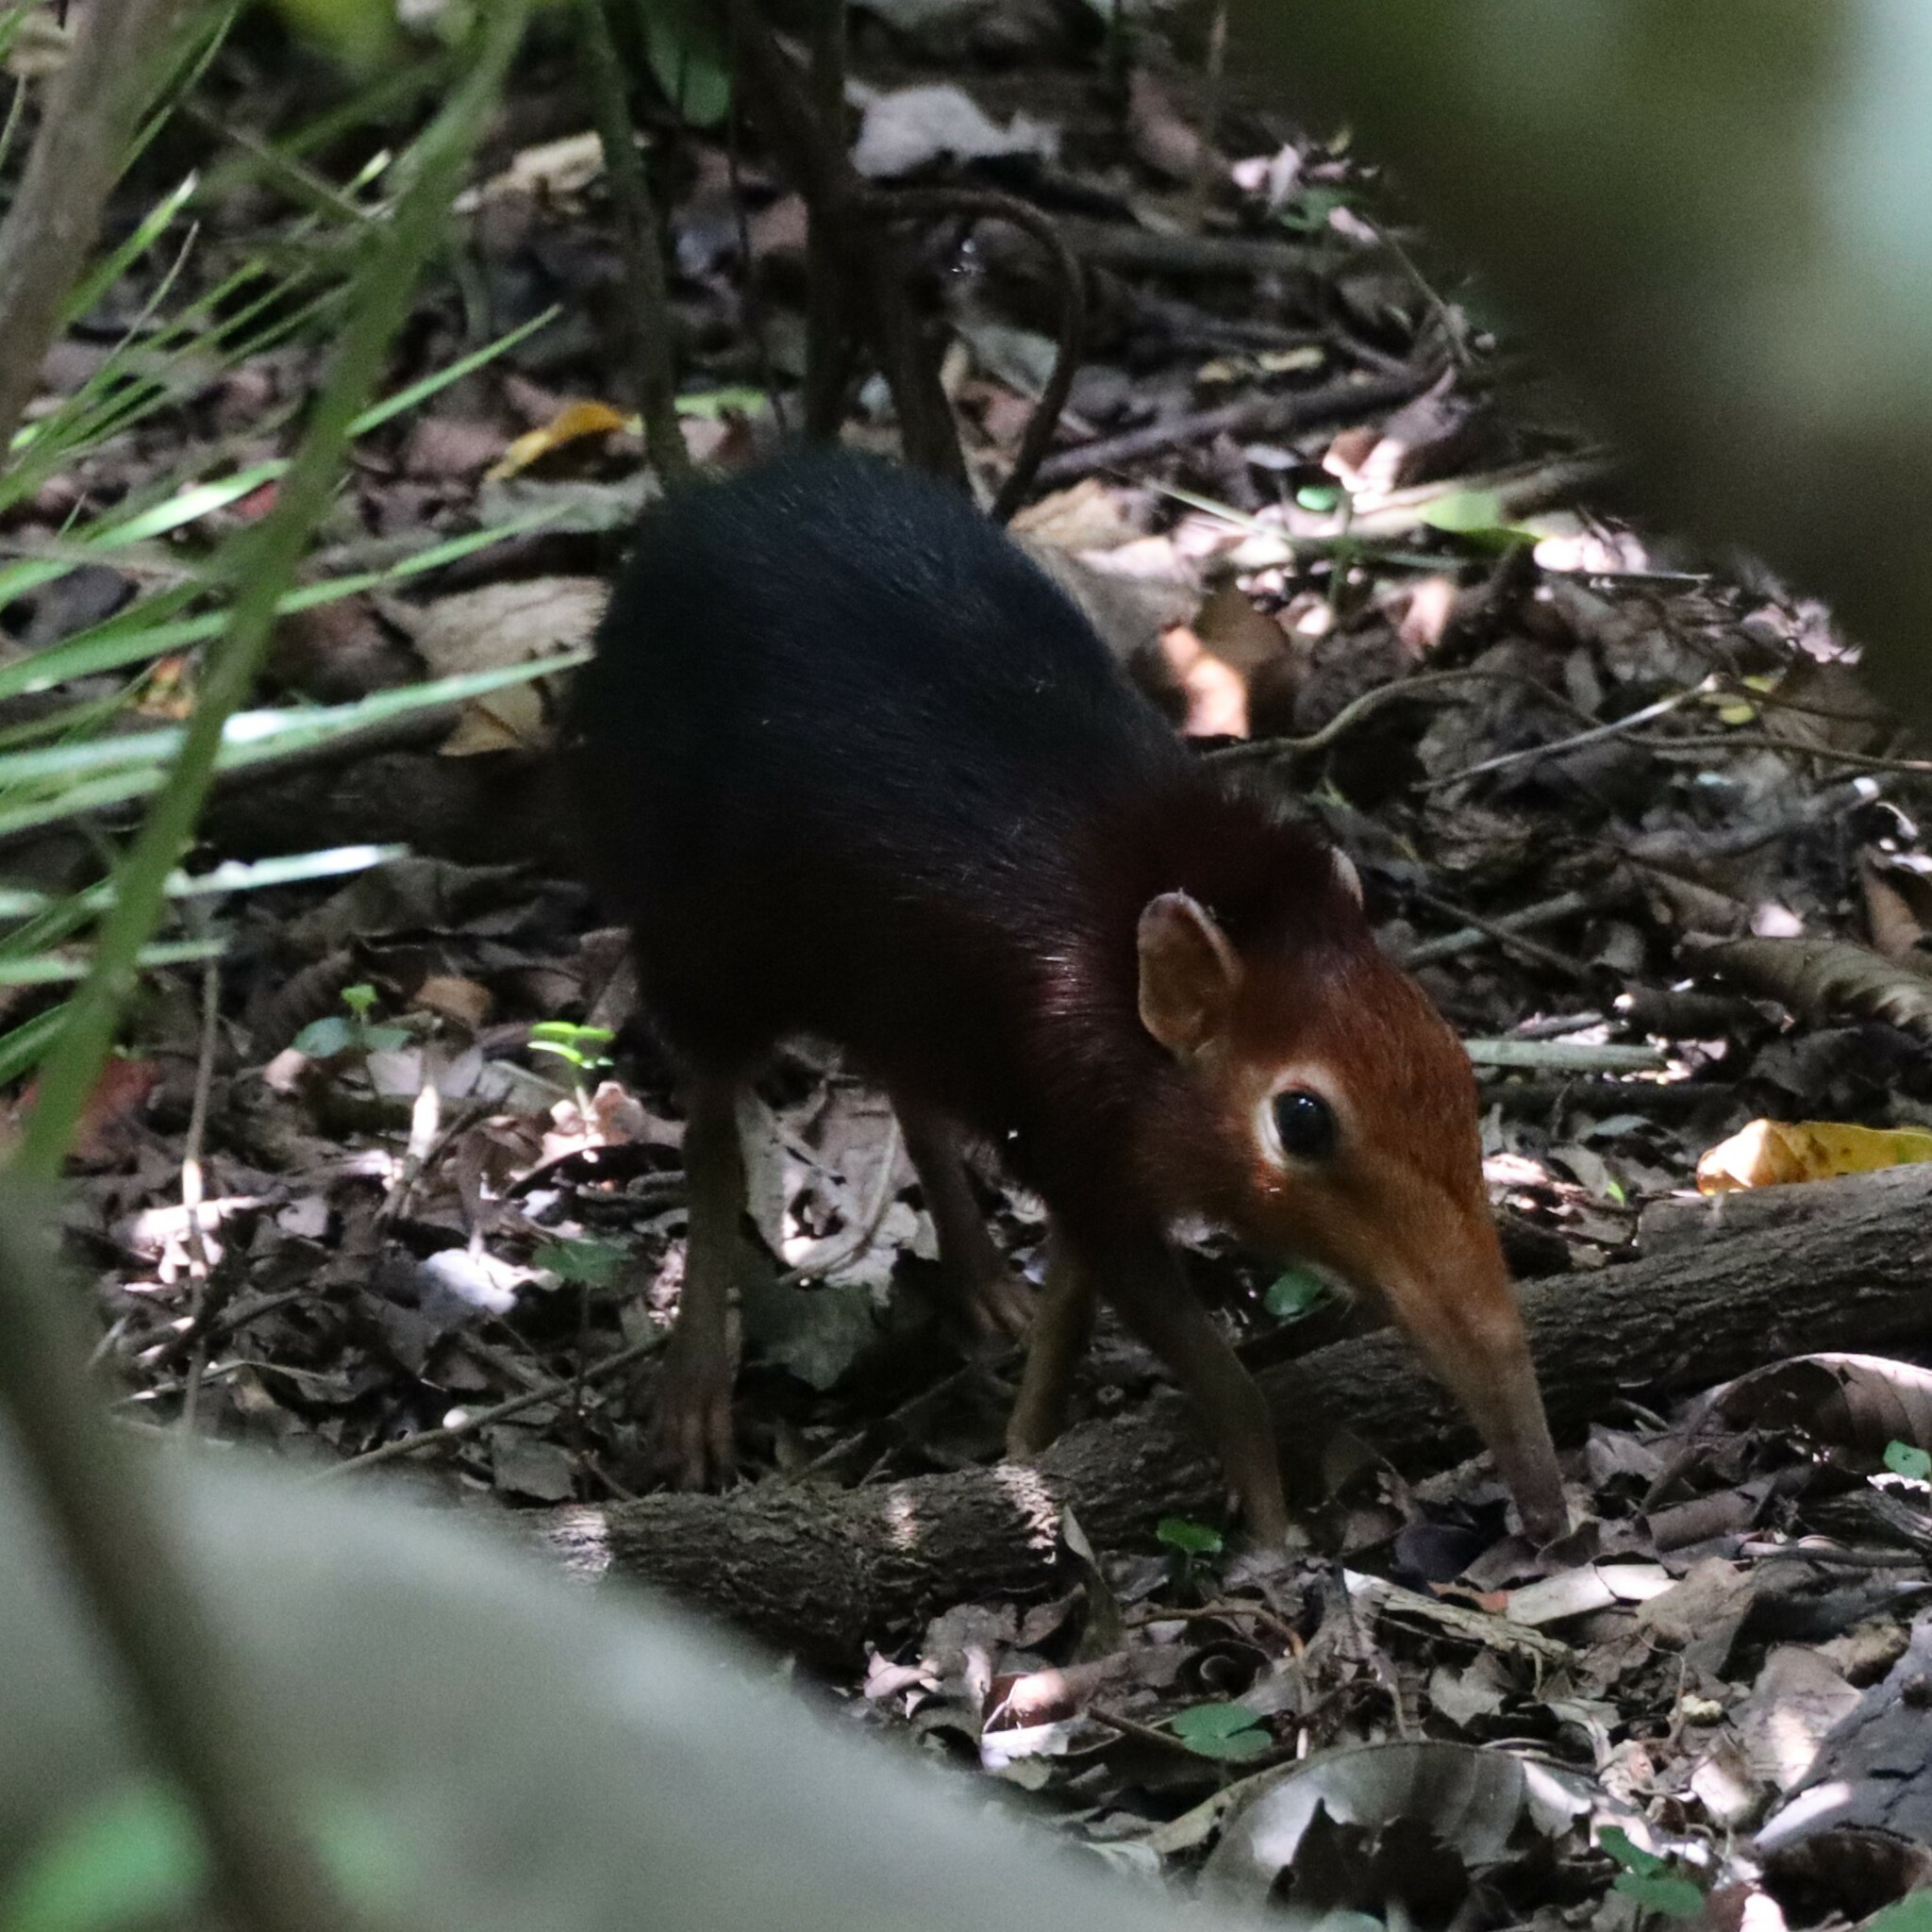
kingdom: Animalia
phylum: Chordata
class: Mammalia
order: Macroscelidea
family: Macroscelididae
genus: Rhynchocyon
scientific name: Rhynchocyon petersi
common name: Black and rufous elephant shrew/sengi
